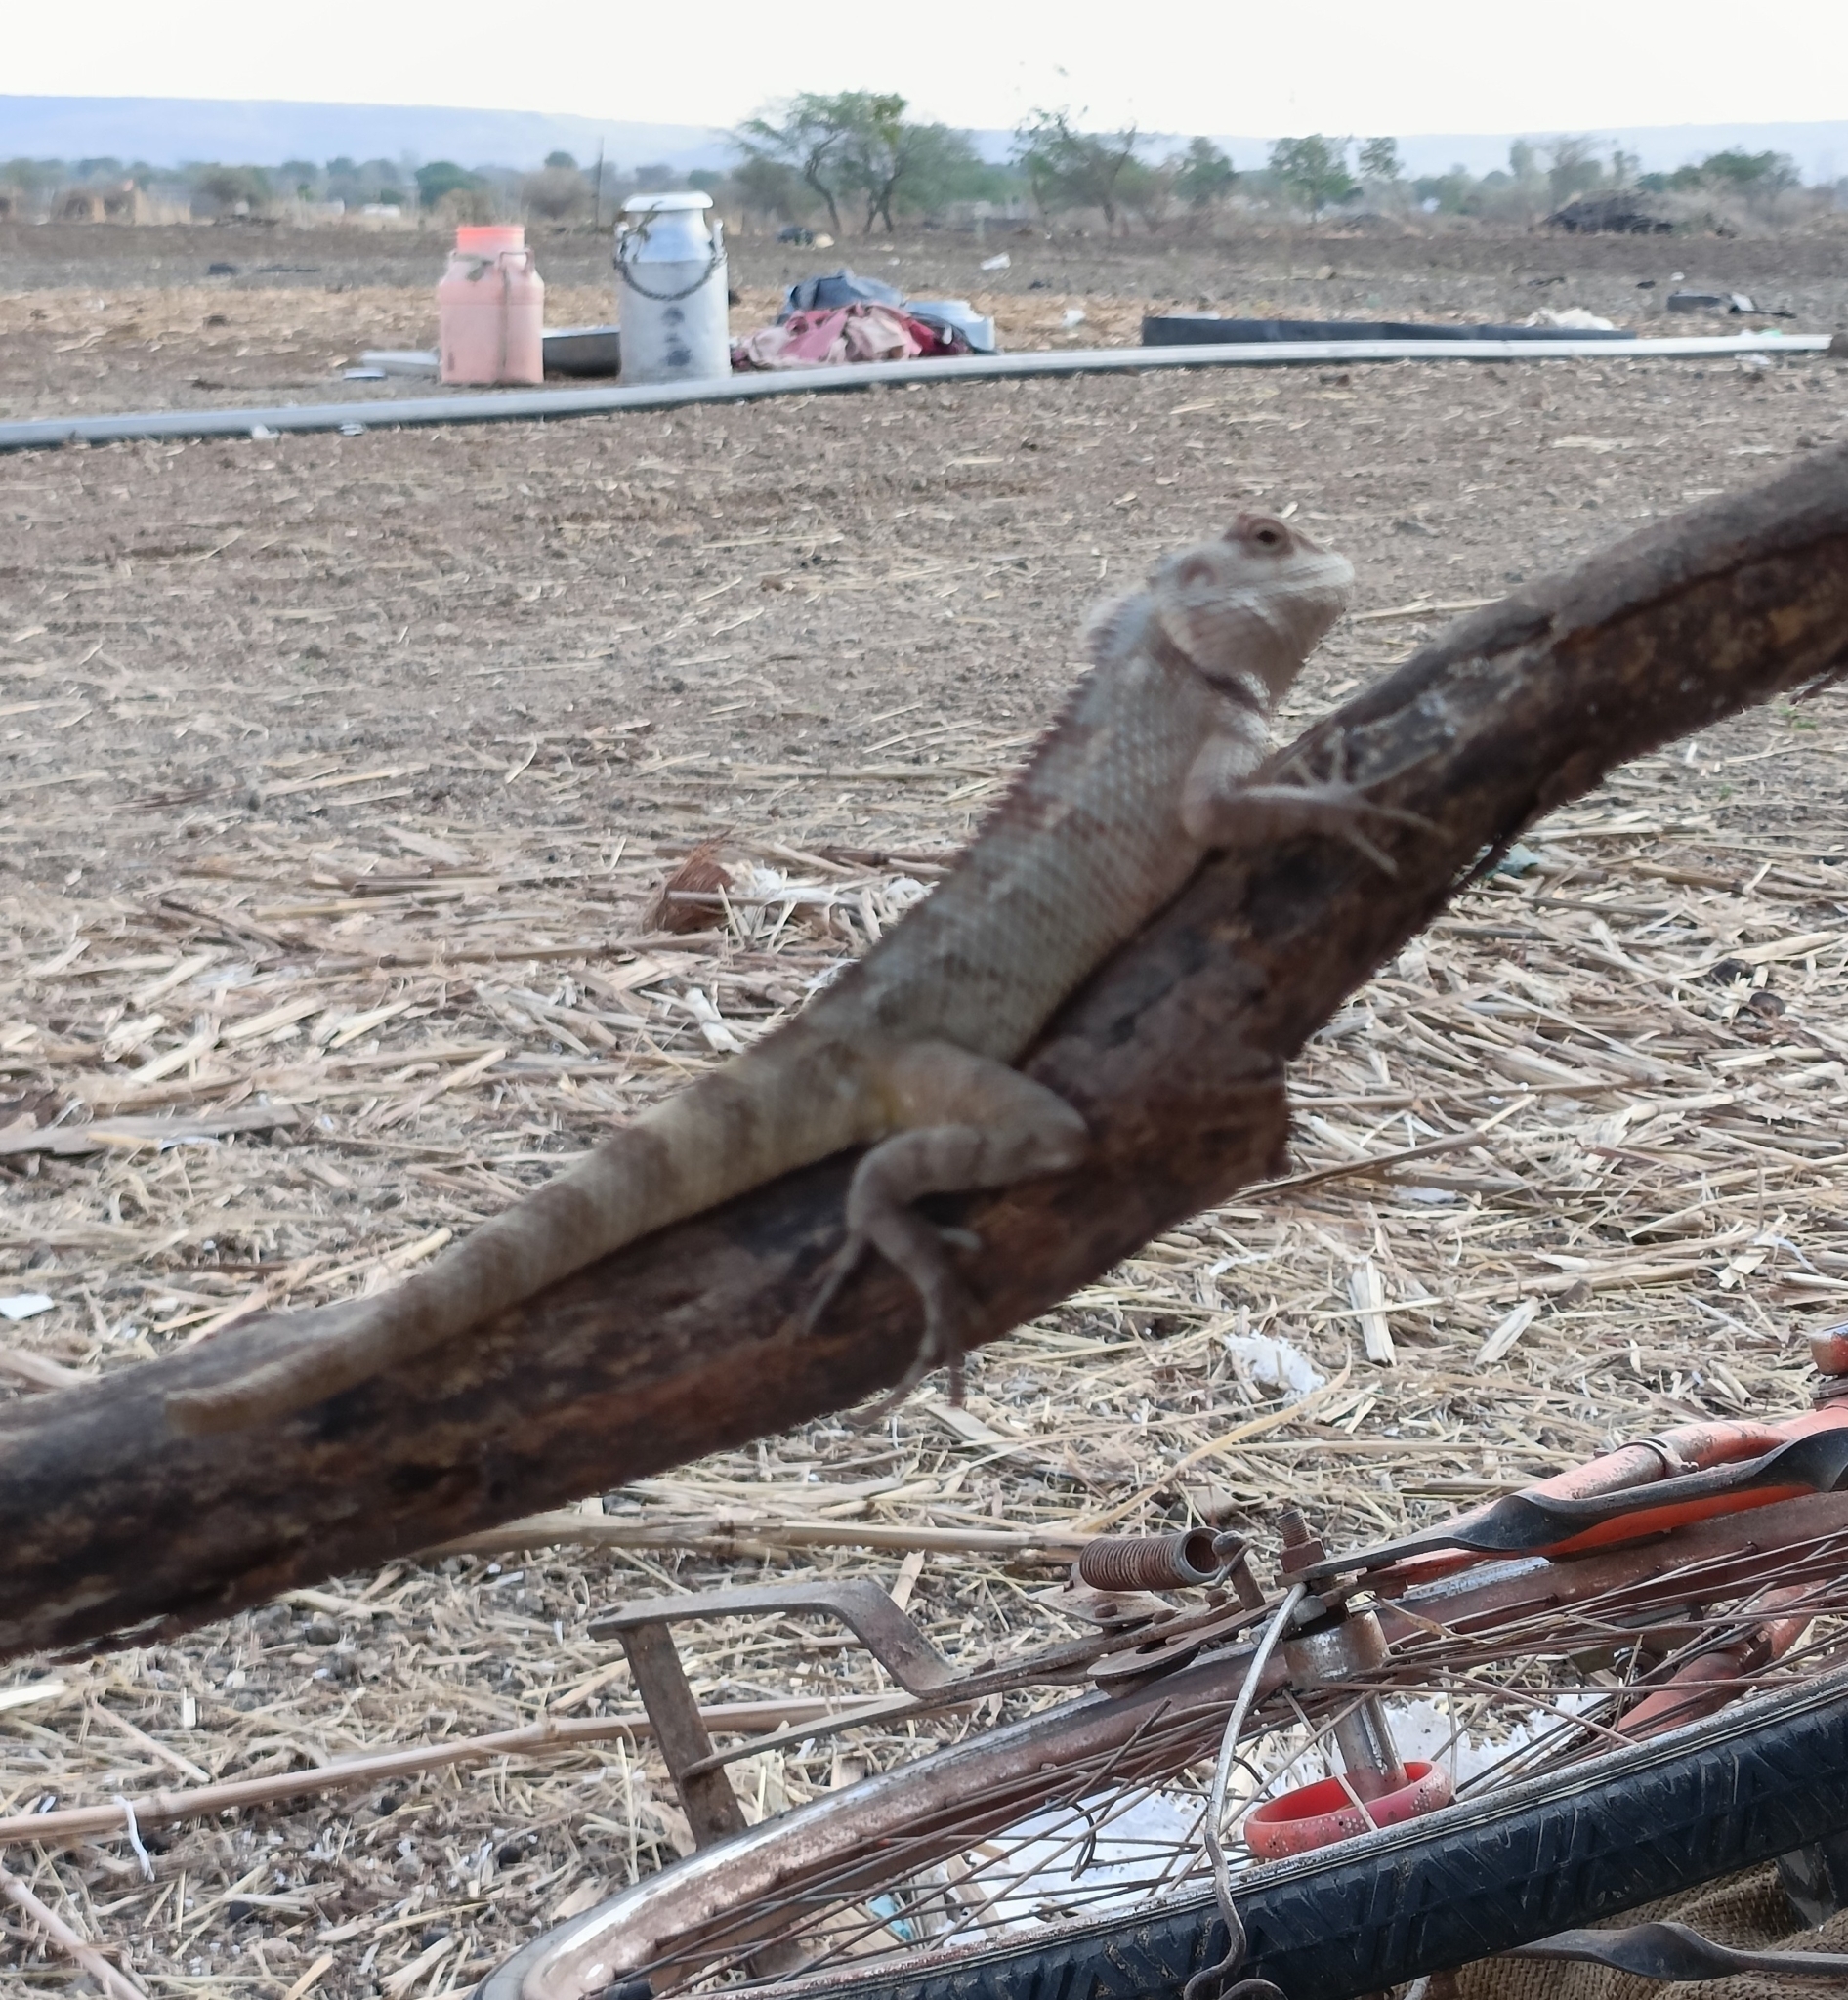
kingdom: Animalia
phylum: Chordata
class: Squamata
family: Agamidae
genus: Calotes
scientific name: Calotes versicolor
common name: Oriental garden lizard
